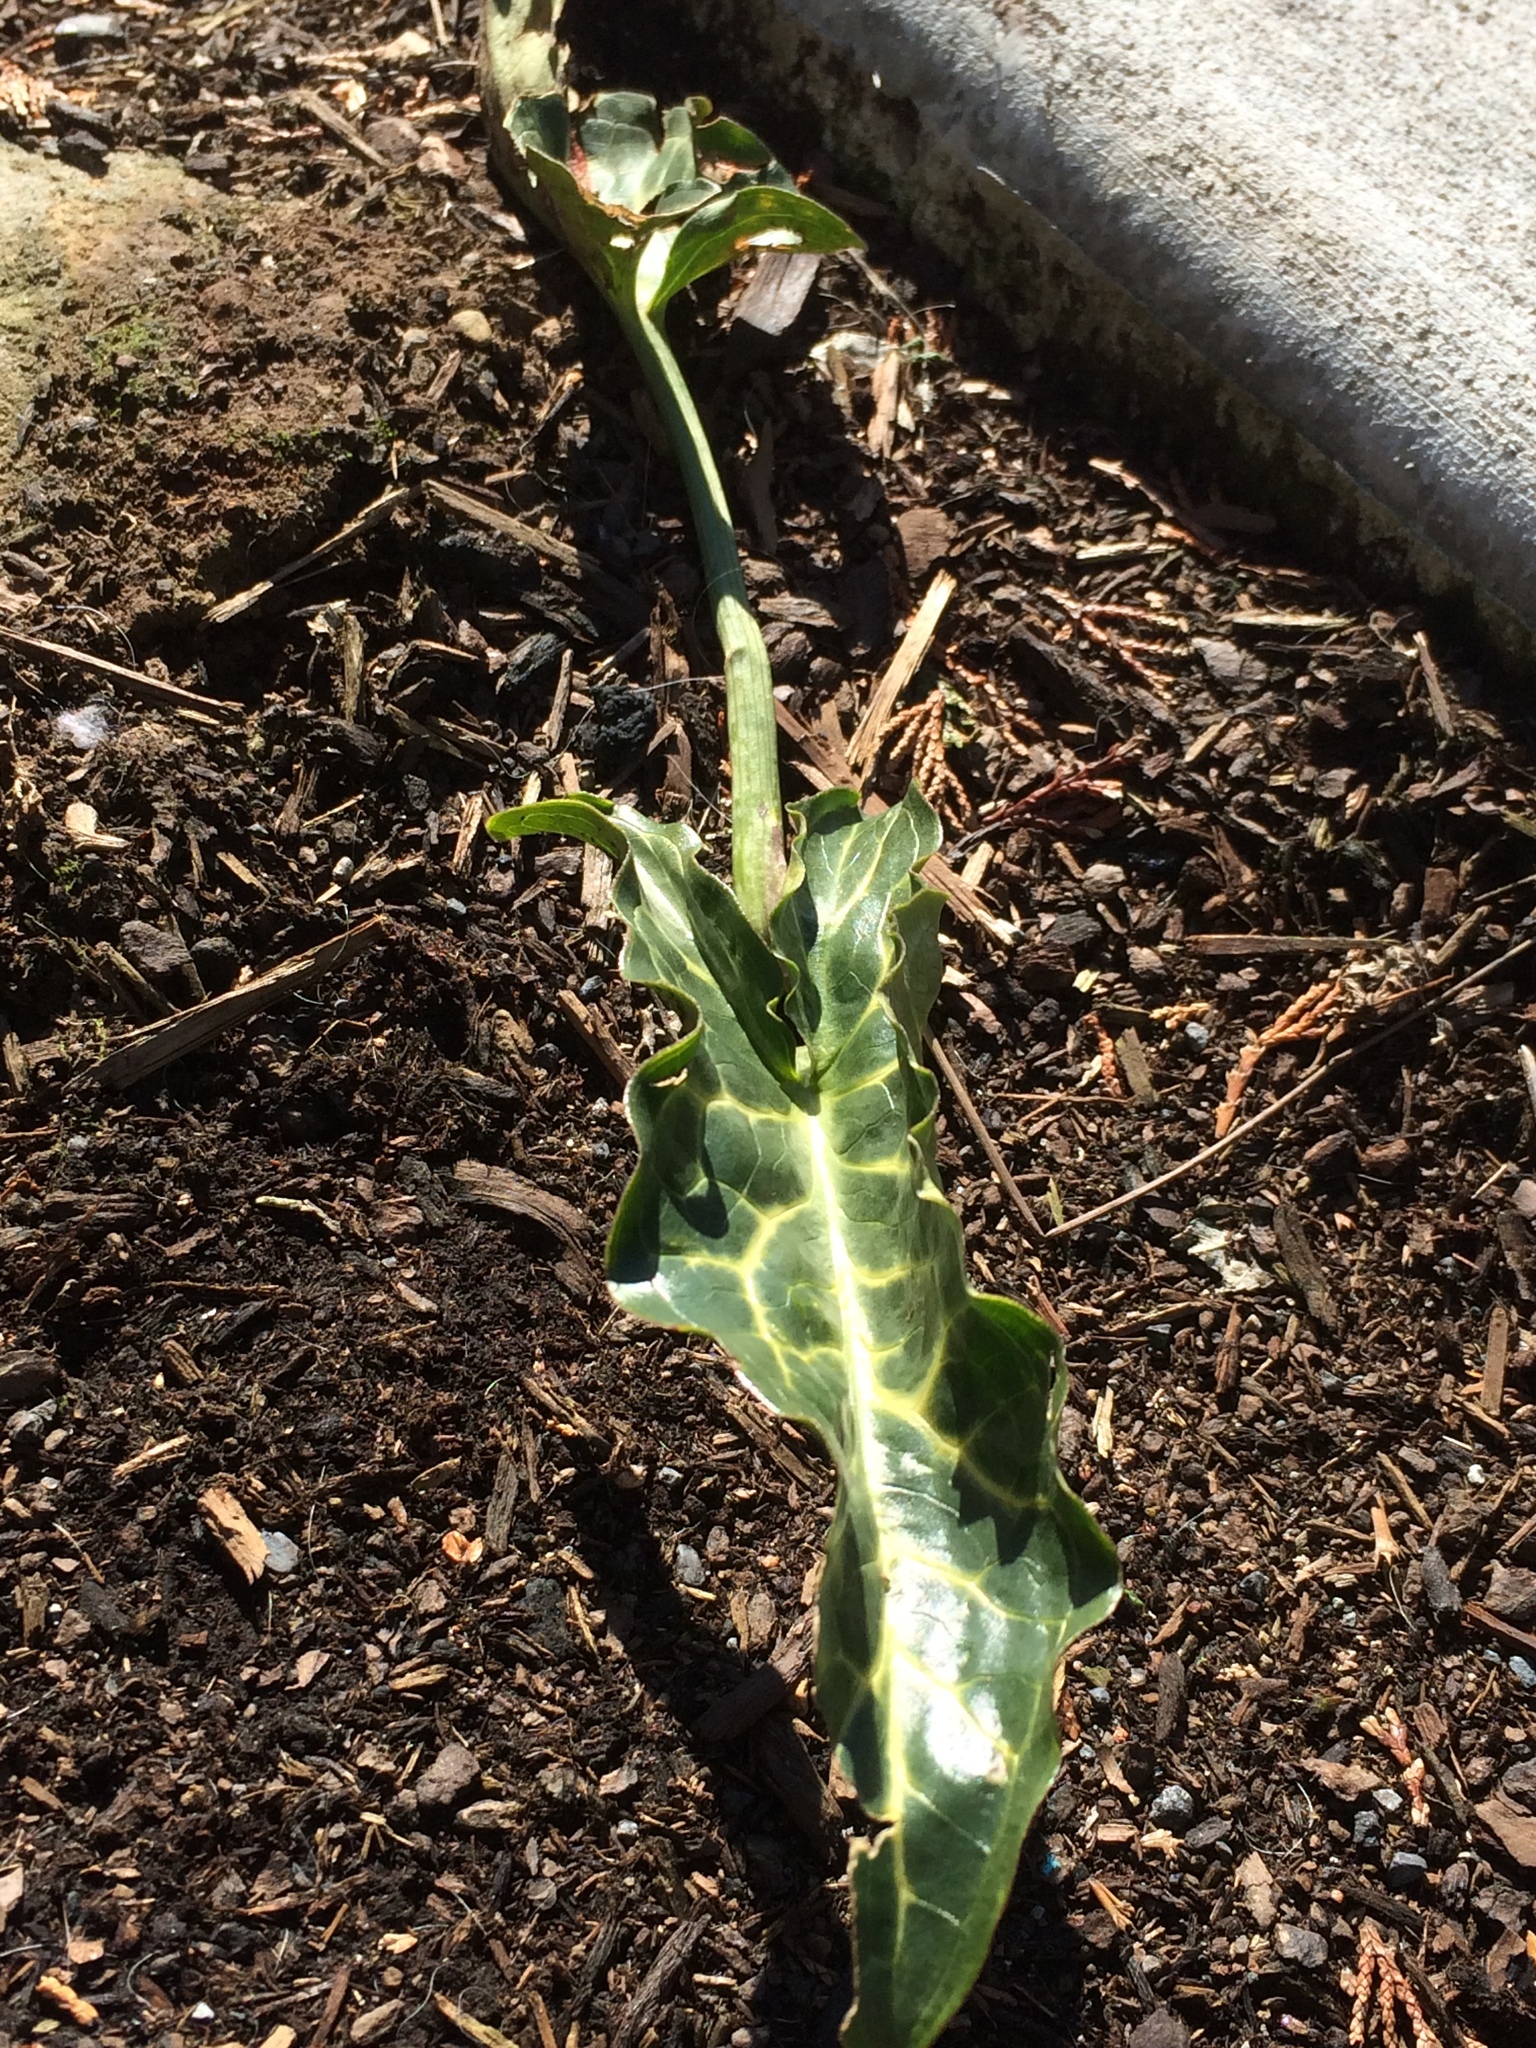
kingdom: Plantae
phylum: Tracheophyta
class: Liliopsida
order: Alismatales
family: Araceae
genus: Arum
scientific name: Arum italicum
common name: Italian lords-and-ladies
